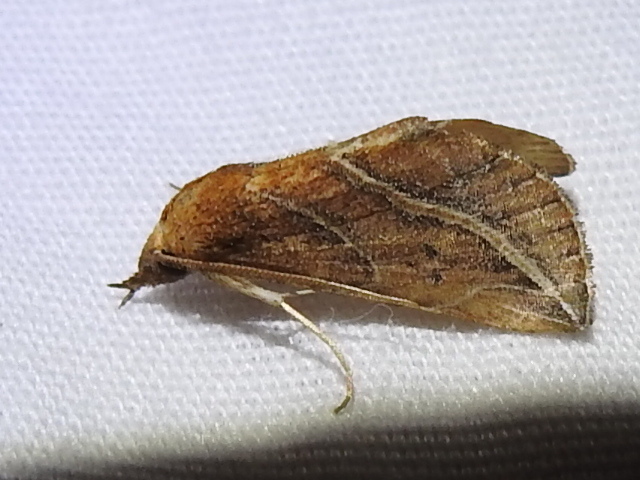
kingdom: Animalia
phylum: Arthropoda
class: Insecta
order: Lepidoptera
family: Erebidae
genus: Phyprosopus
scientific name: Phyprosopus callitrichoides
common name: Curved-lined owlet
